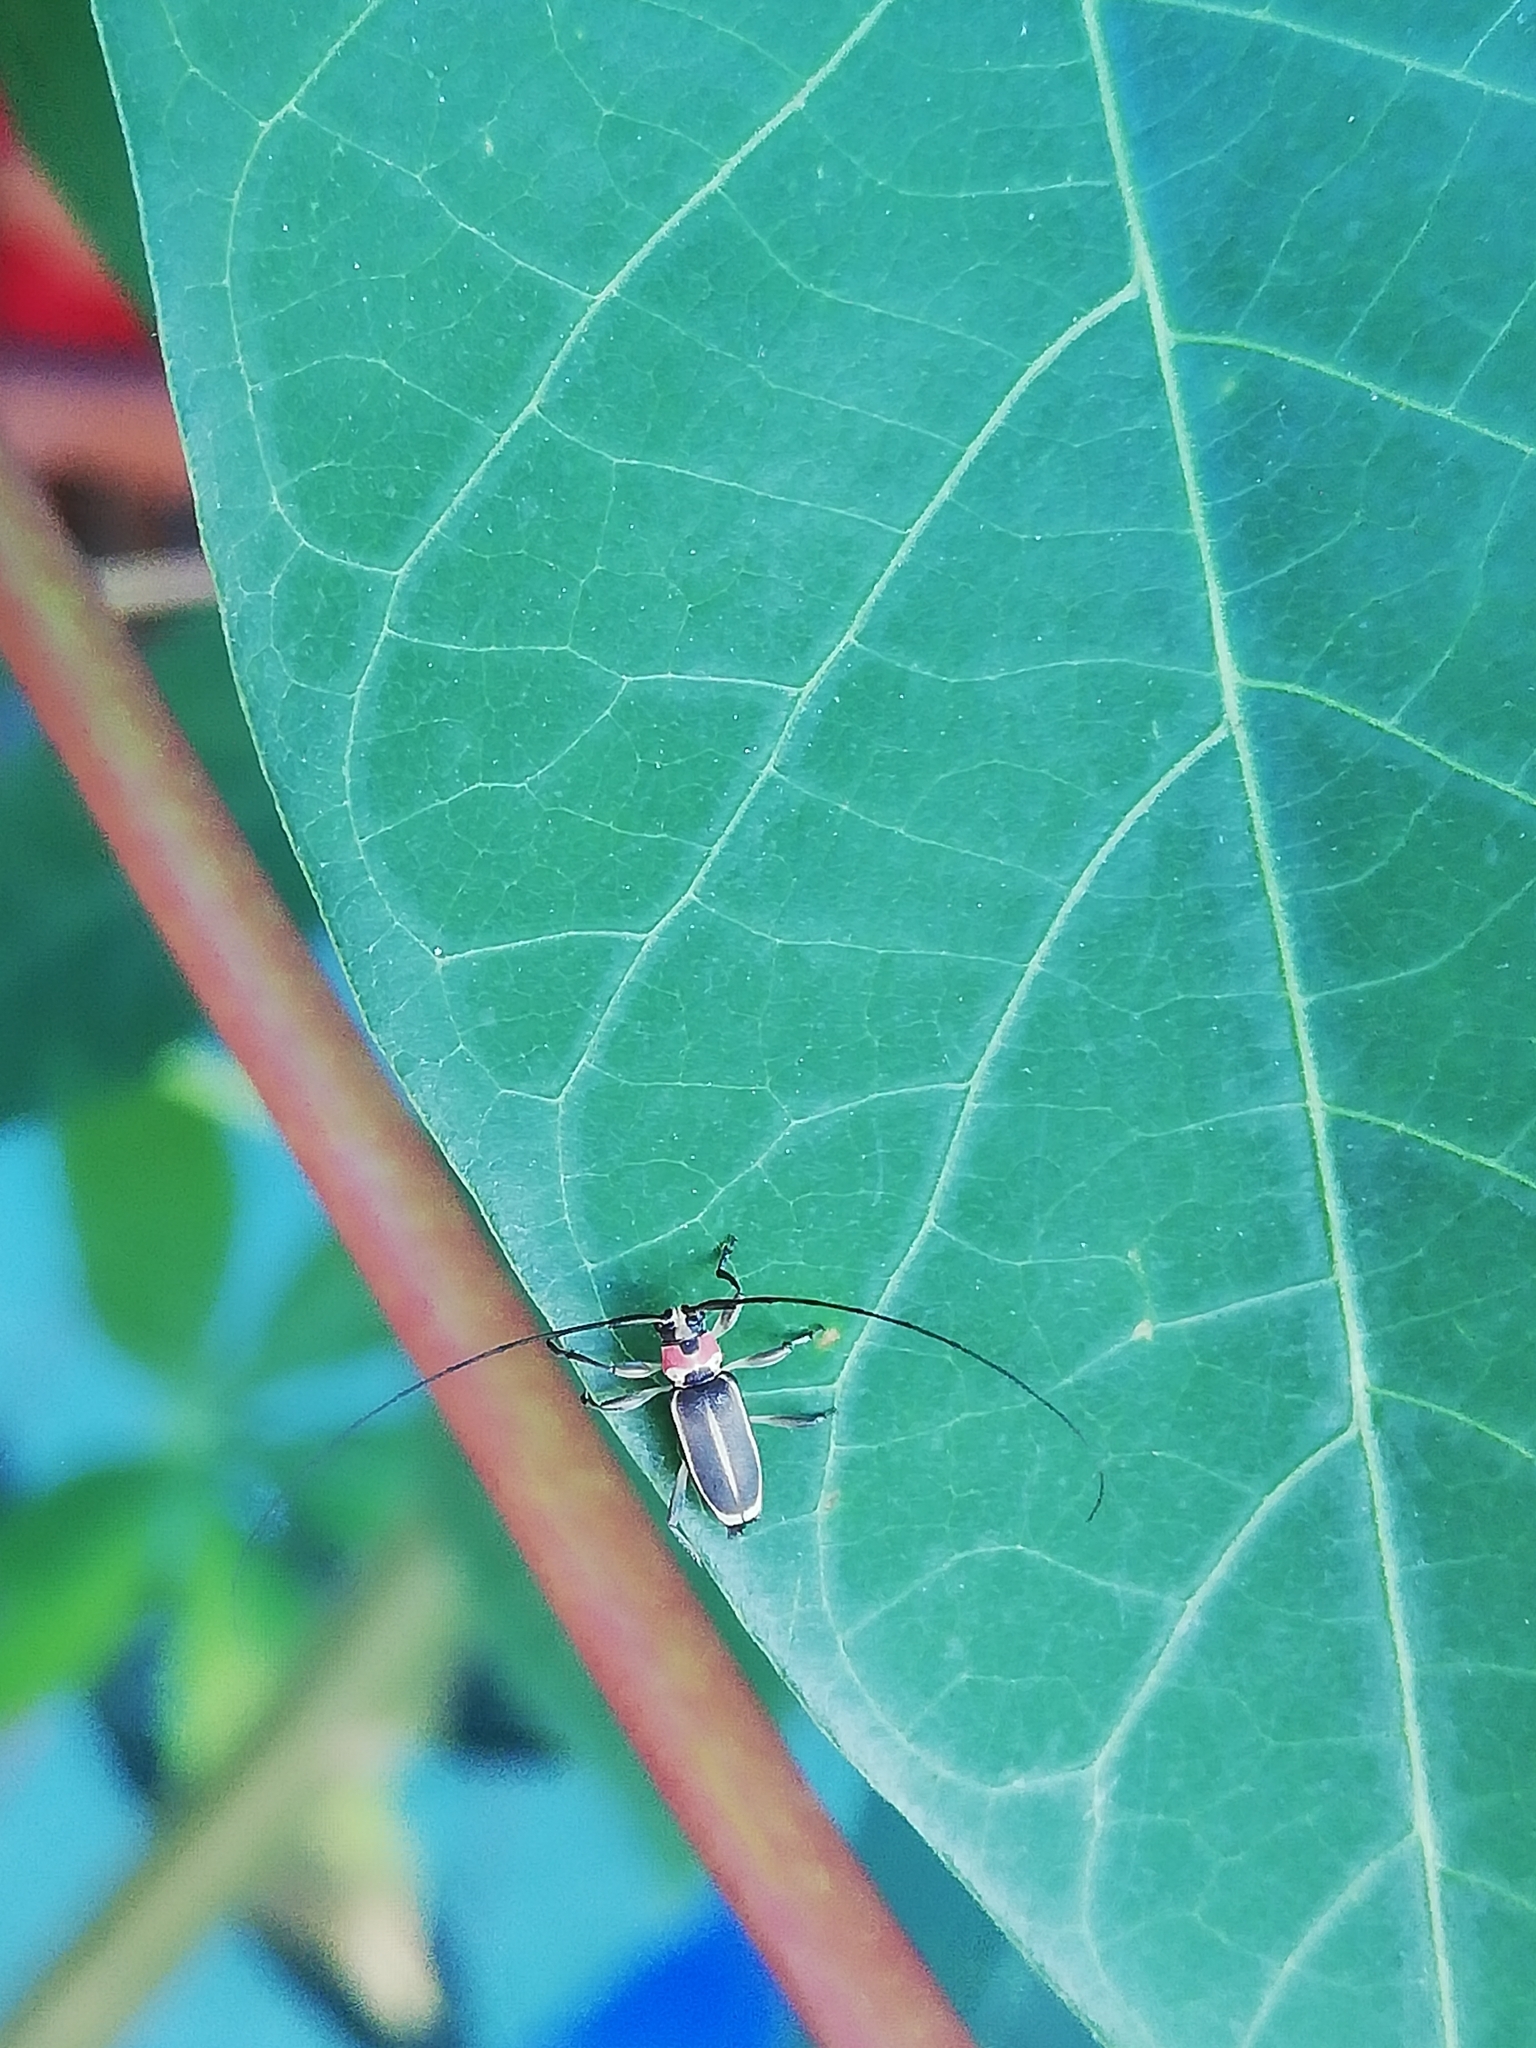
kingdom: Animalia
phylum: Arthropoda
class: Insecta
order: Coleoptera
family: Cerambycidae
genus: Nyssodectes
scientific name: Nyssodectes roseicollis
